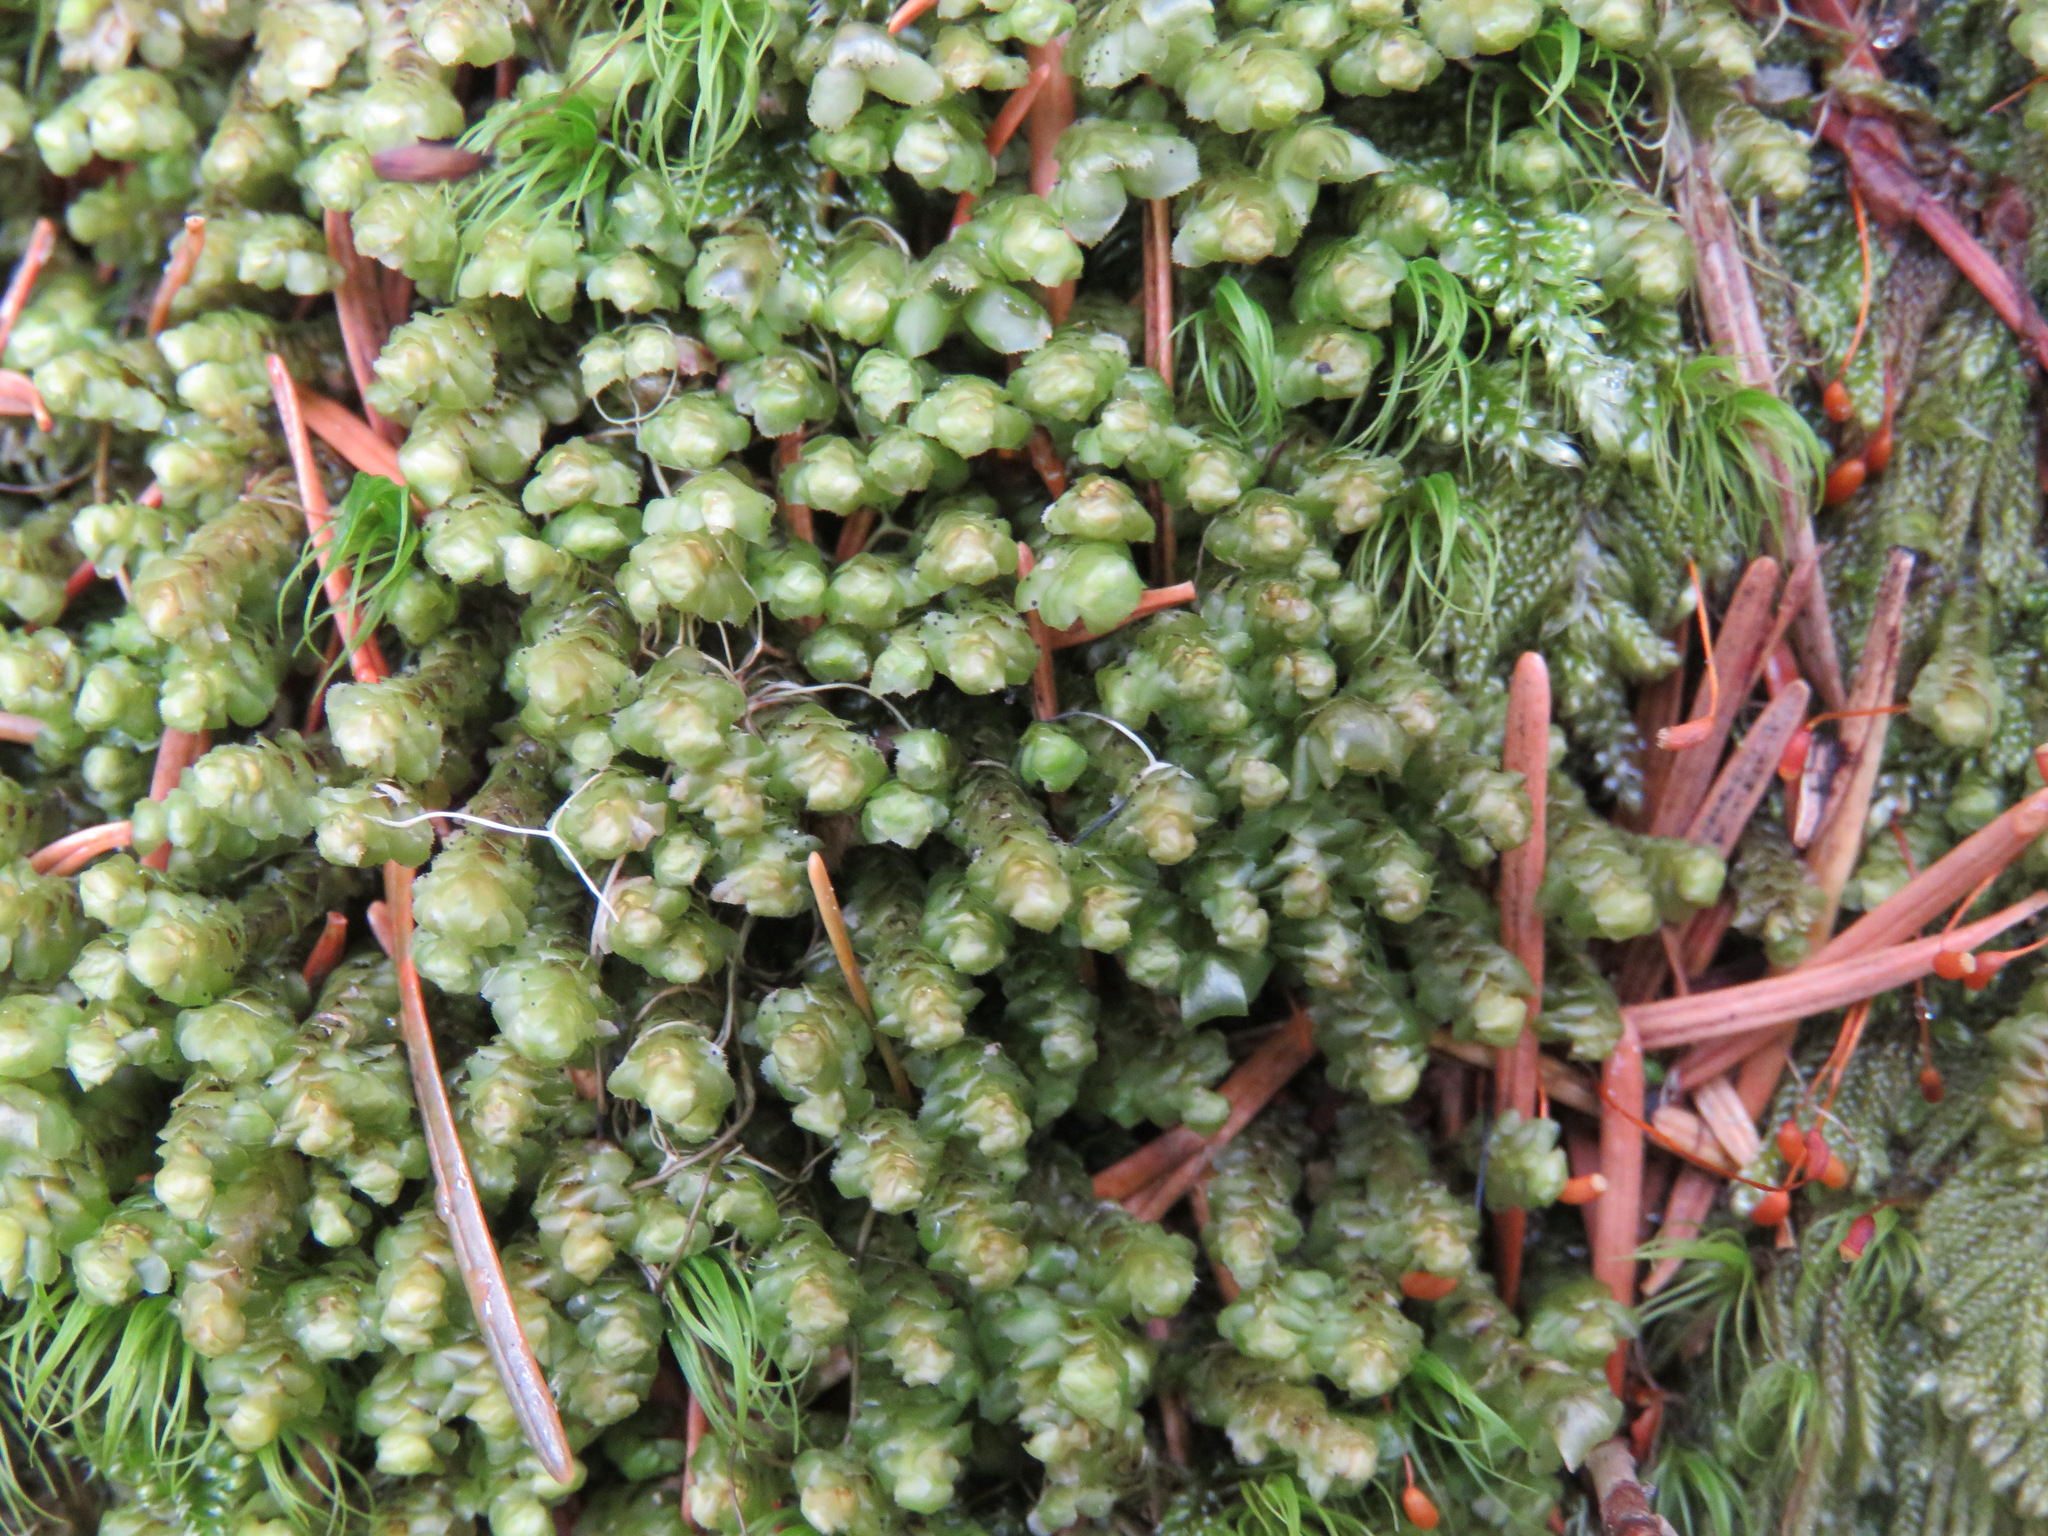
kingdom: Plantae
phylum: Marchantiophyta
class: Jungermanniopsida
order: Jungermanniales
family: Scapaniaceae
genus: Scapania
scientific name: Scapania bolanderi
